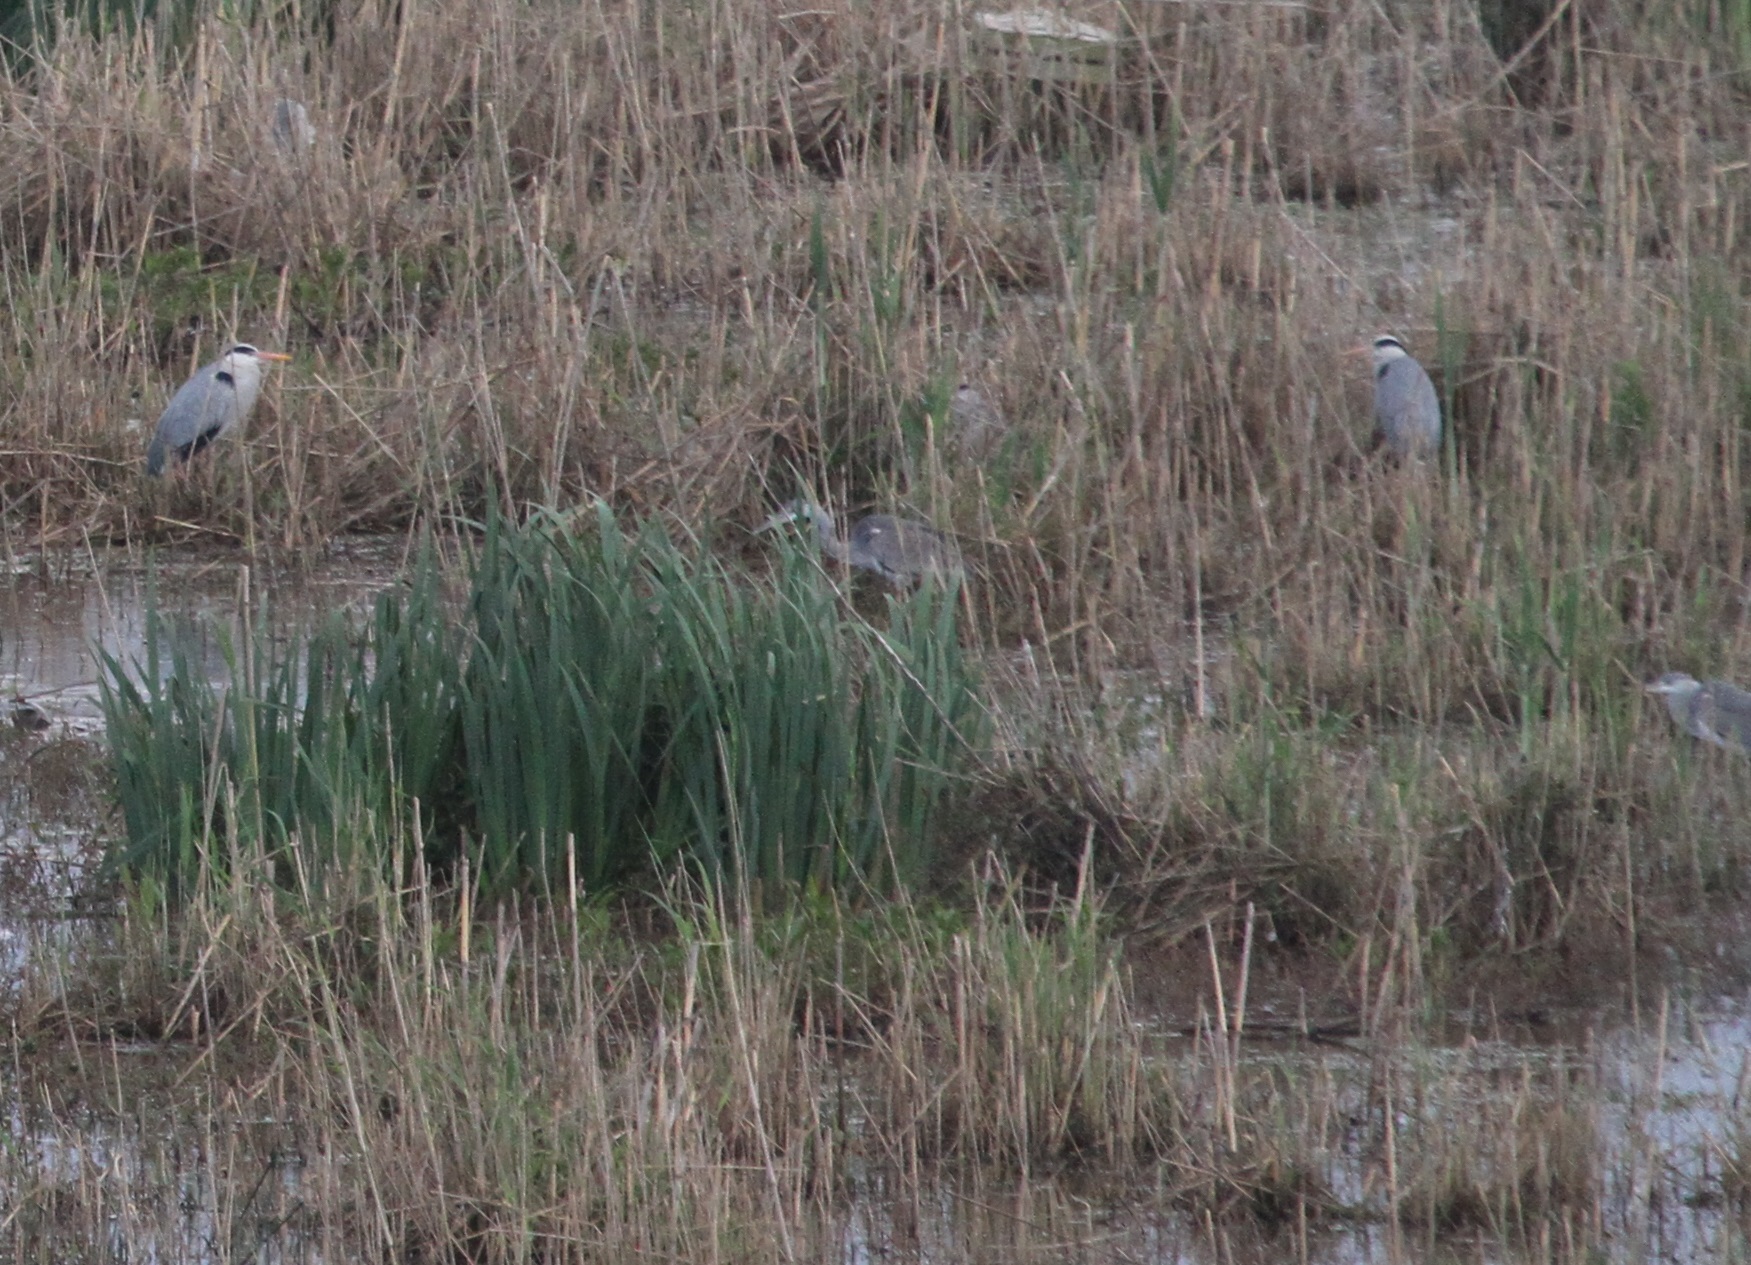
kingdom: Animalia
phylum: Chordata
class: Aves
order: Pelecaniformes
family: Ardeidae
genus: Ardea
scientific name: Ardea cinerea
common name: Grey heron
